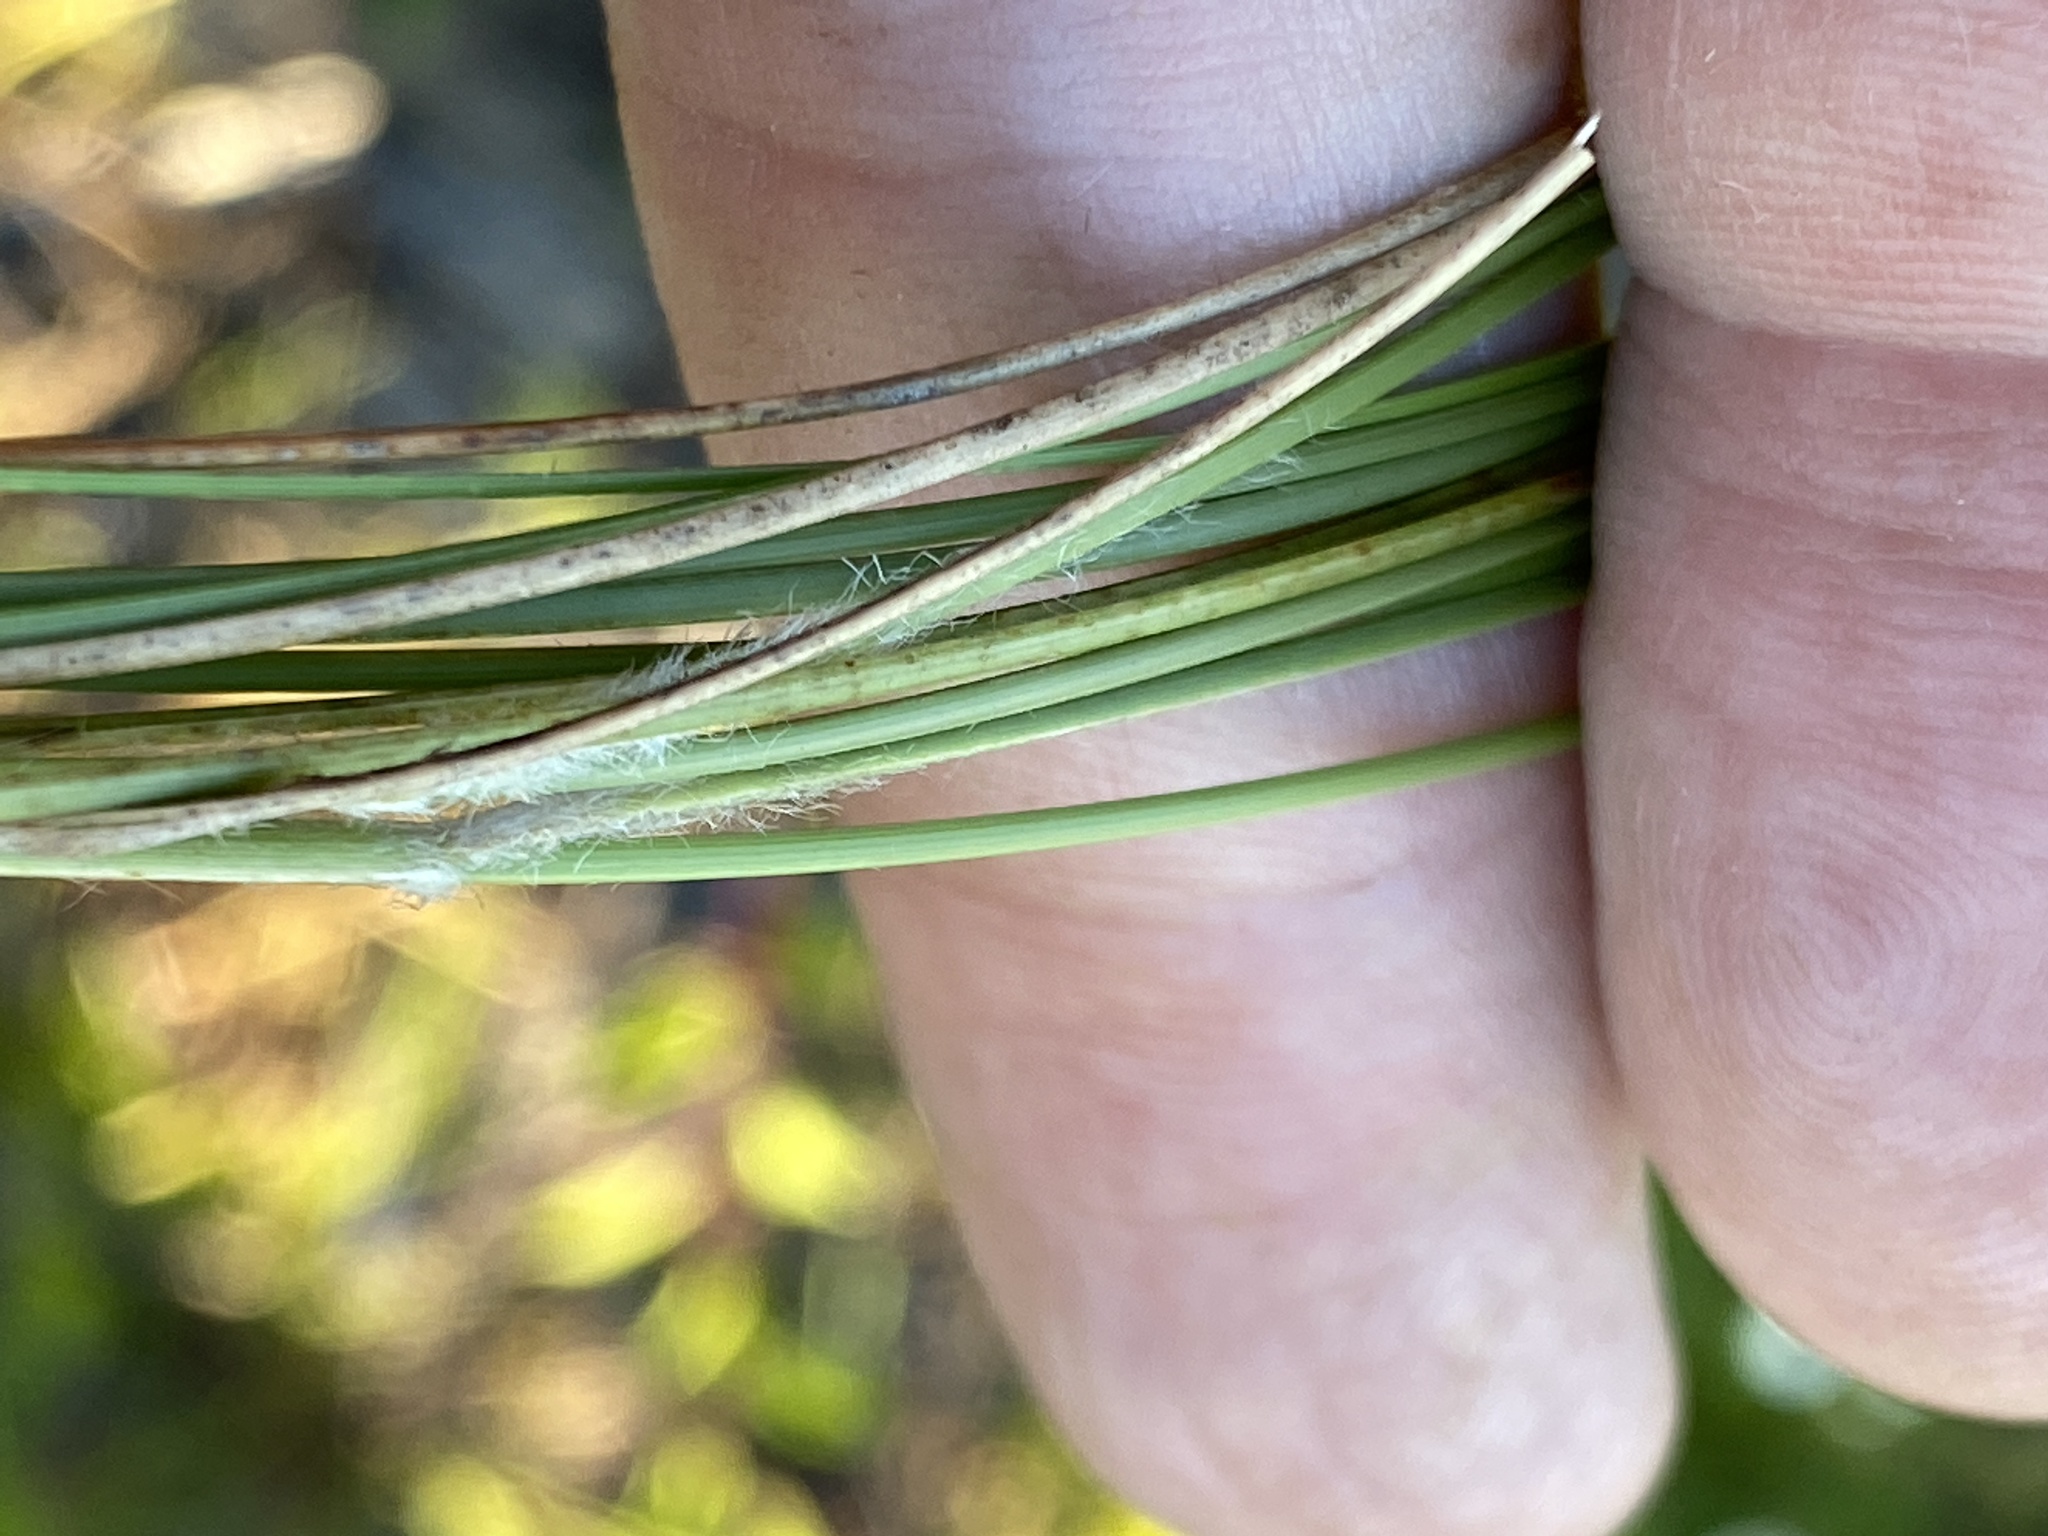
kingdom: Plantae
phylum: Tracheophyta
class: Liliopsida
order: Poales
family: Poaceae
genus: Aristida
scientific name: Aristida beyrichiana
